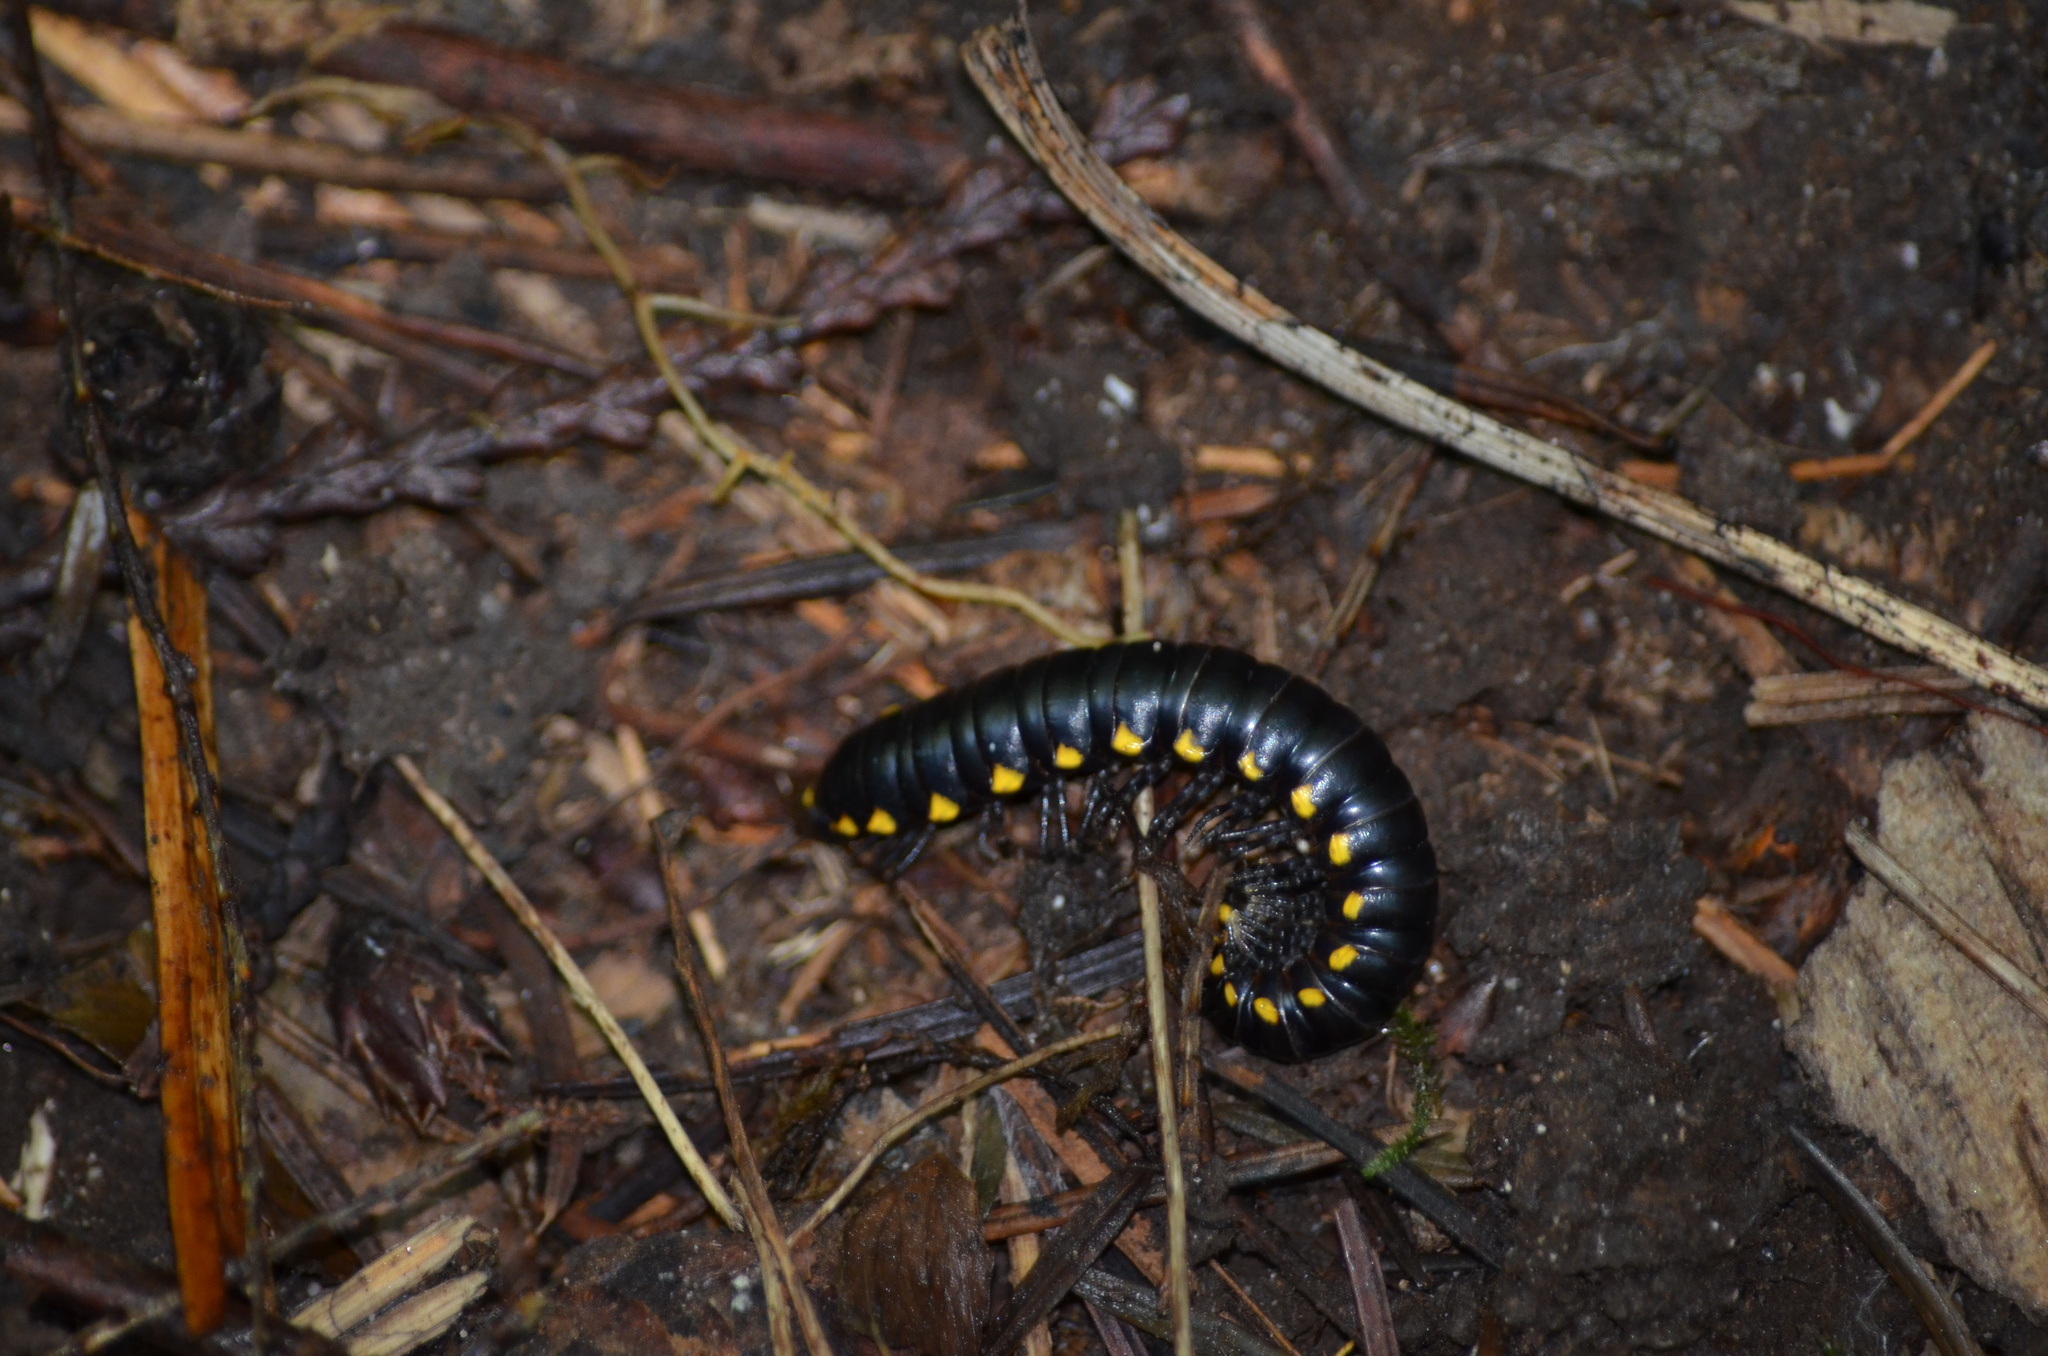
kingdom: Animalia
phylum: Arthropoda
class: Diplopoda
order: Polydesmida
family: Xystodesmidae
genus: Harpaphe
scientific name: Harpaphe haydeniana
